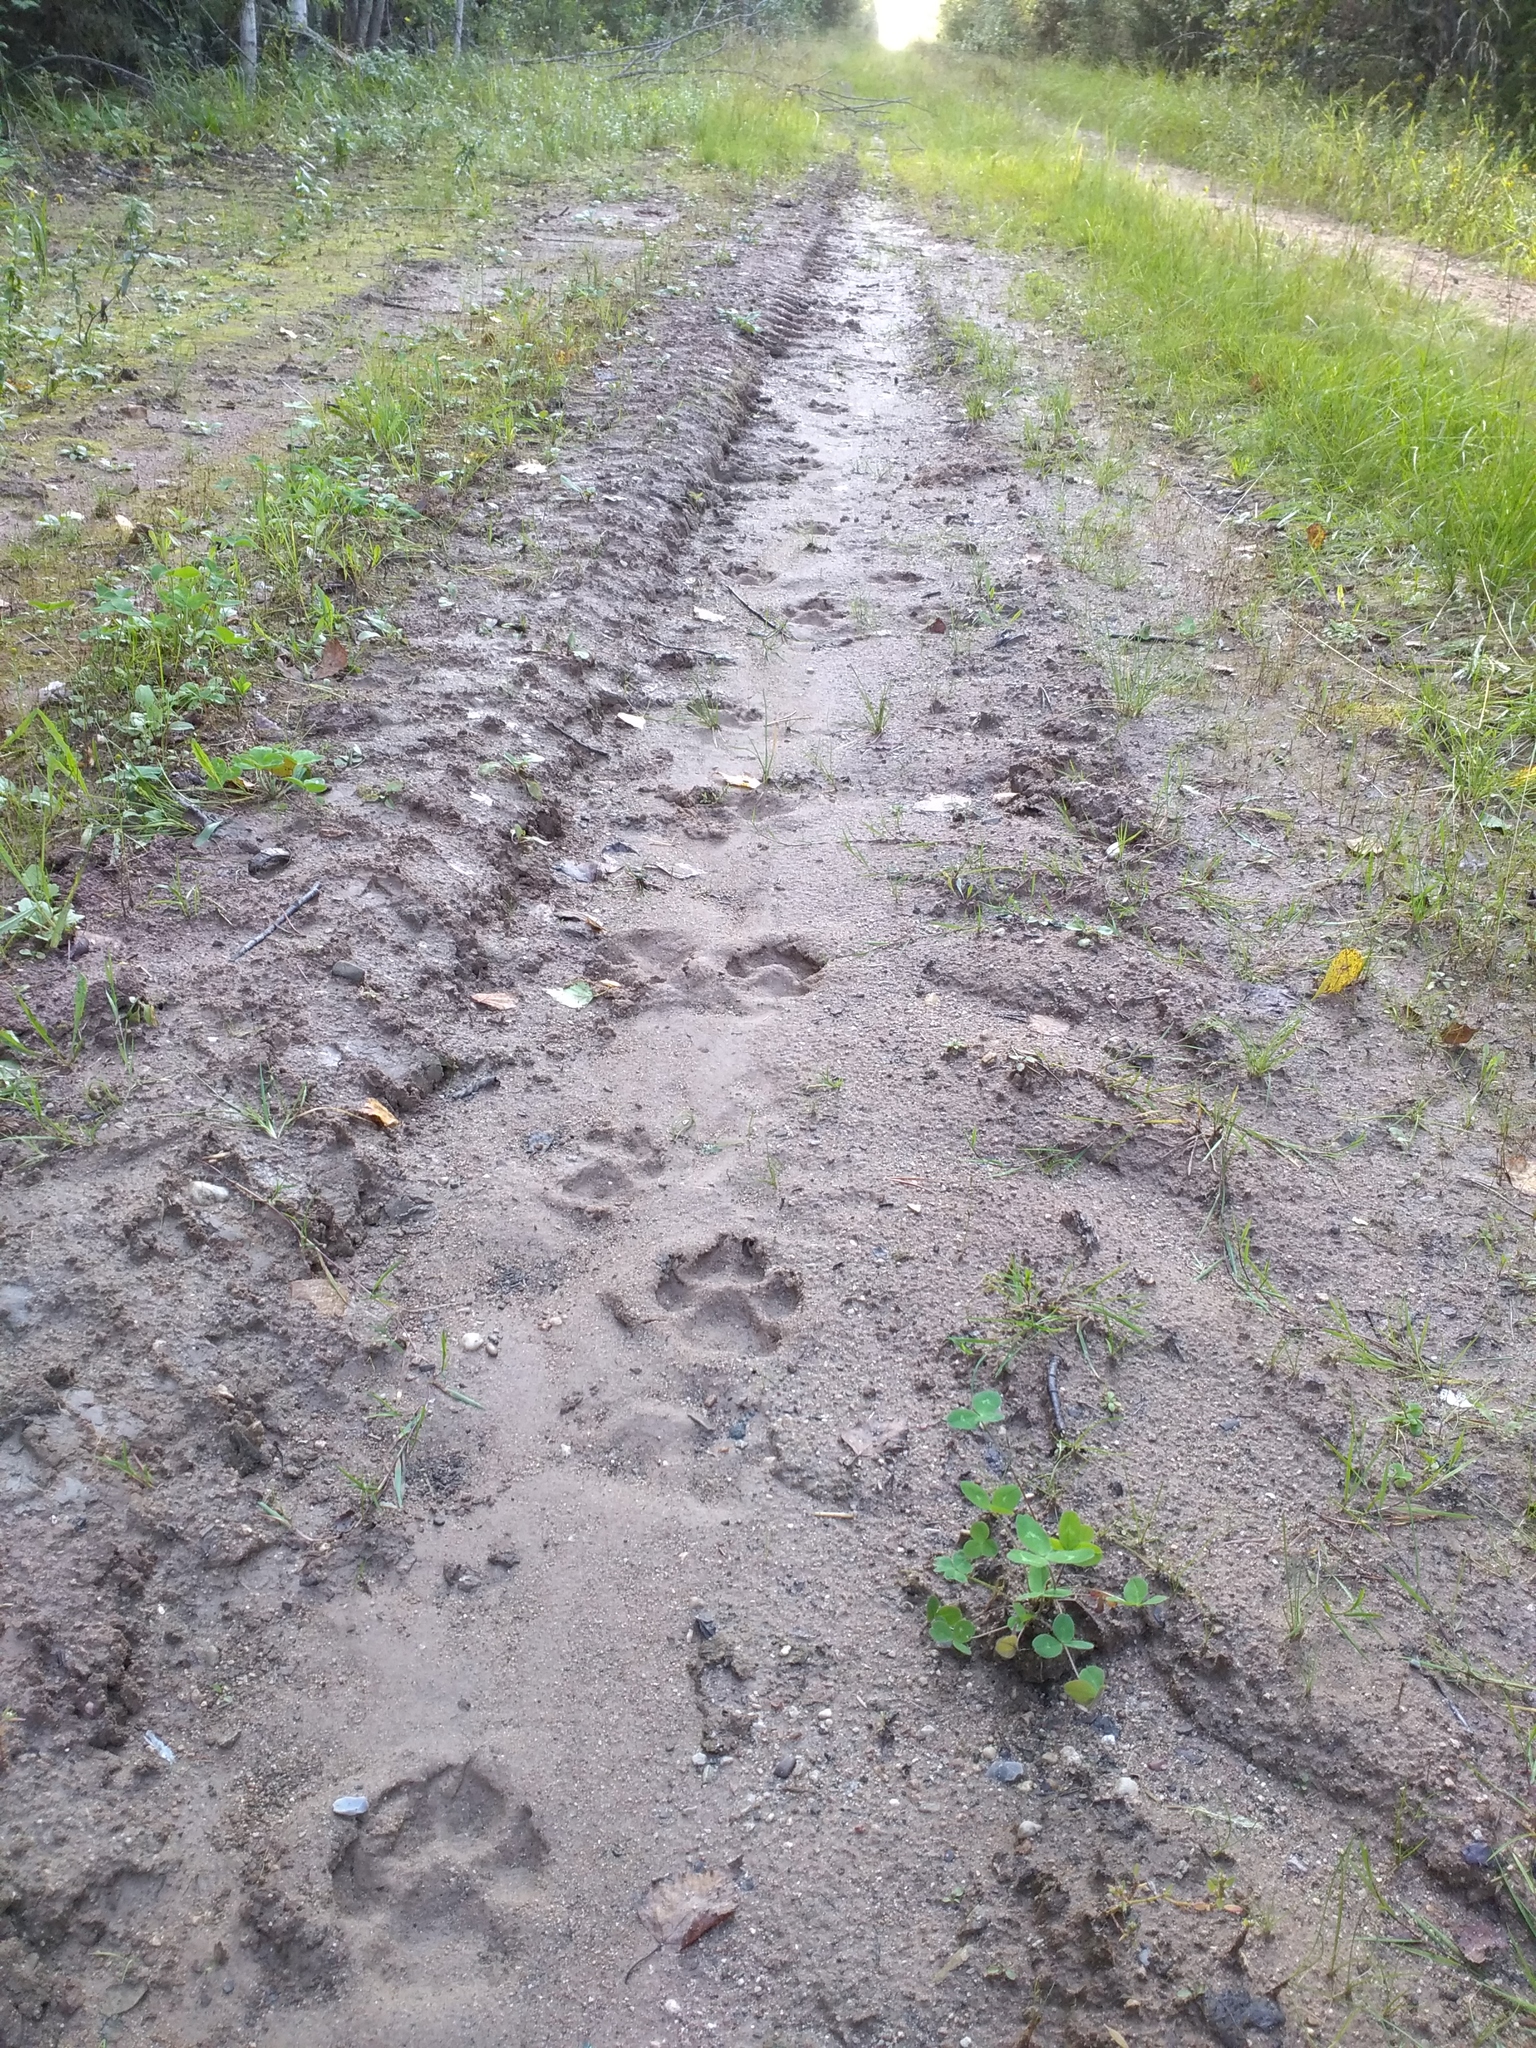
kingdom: Animalia
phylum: Chordata
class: Mammalia
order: Carnivora
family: Canidae
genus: Canis
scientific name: Canis lupus
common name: Gray wolf
